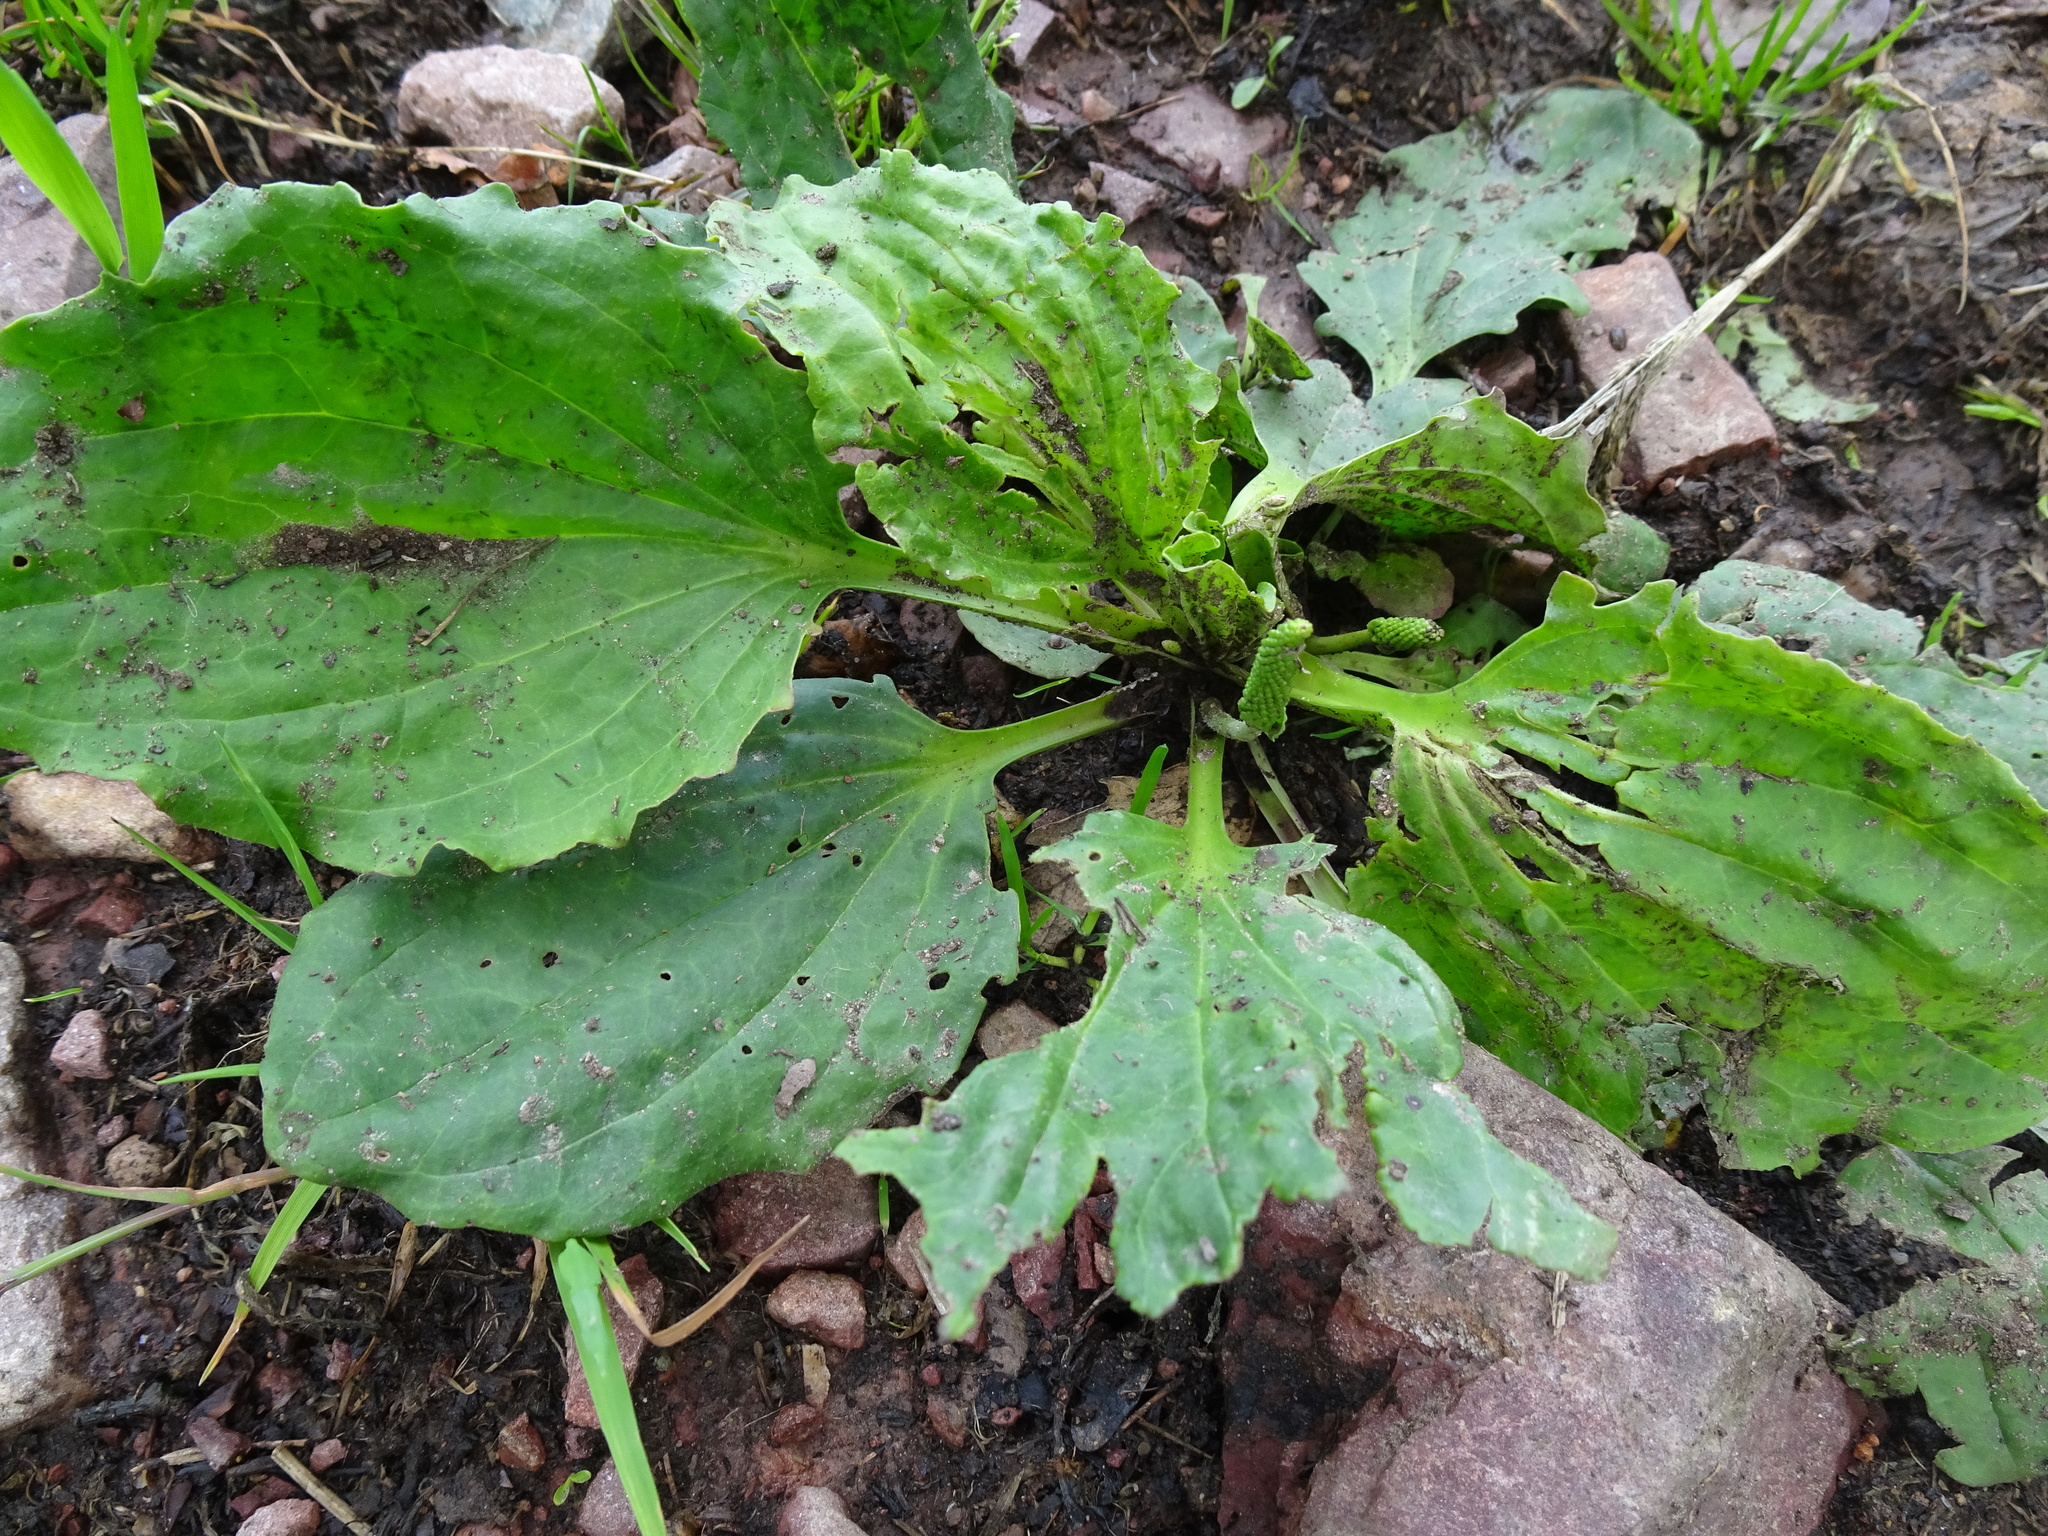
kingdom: Plantae
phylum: Tracheophyta
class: Magnoliopsida
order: Lamiales
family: Plantaginaceae
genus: Plantago
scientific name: Plantago major
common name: Common plantain
